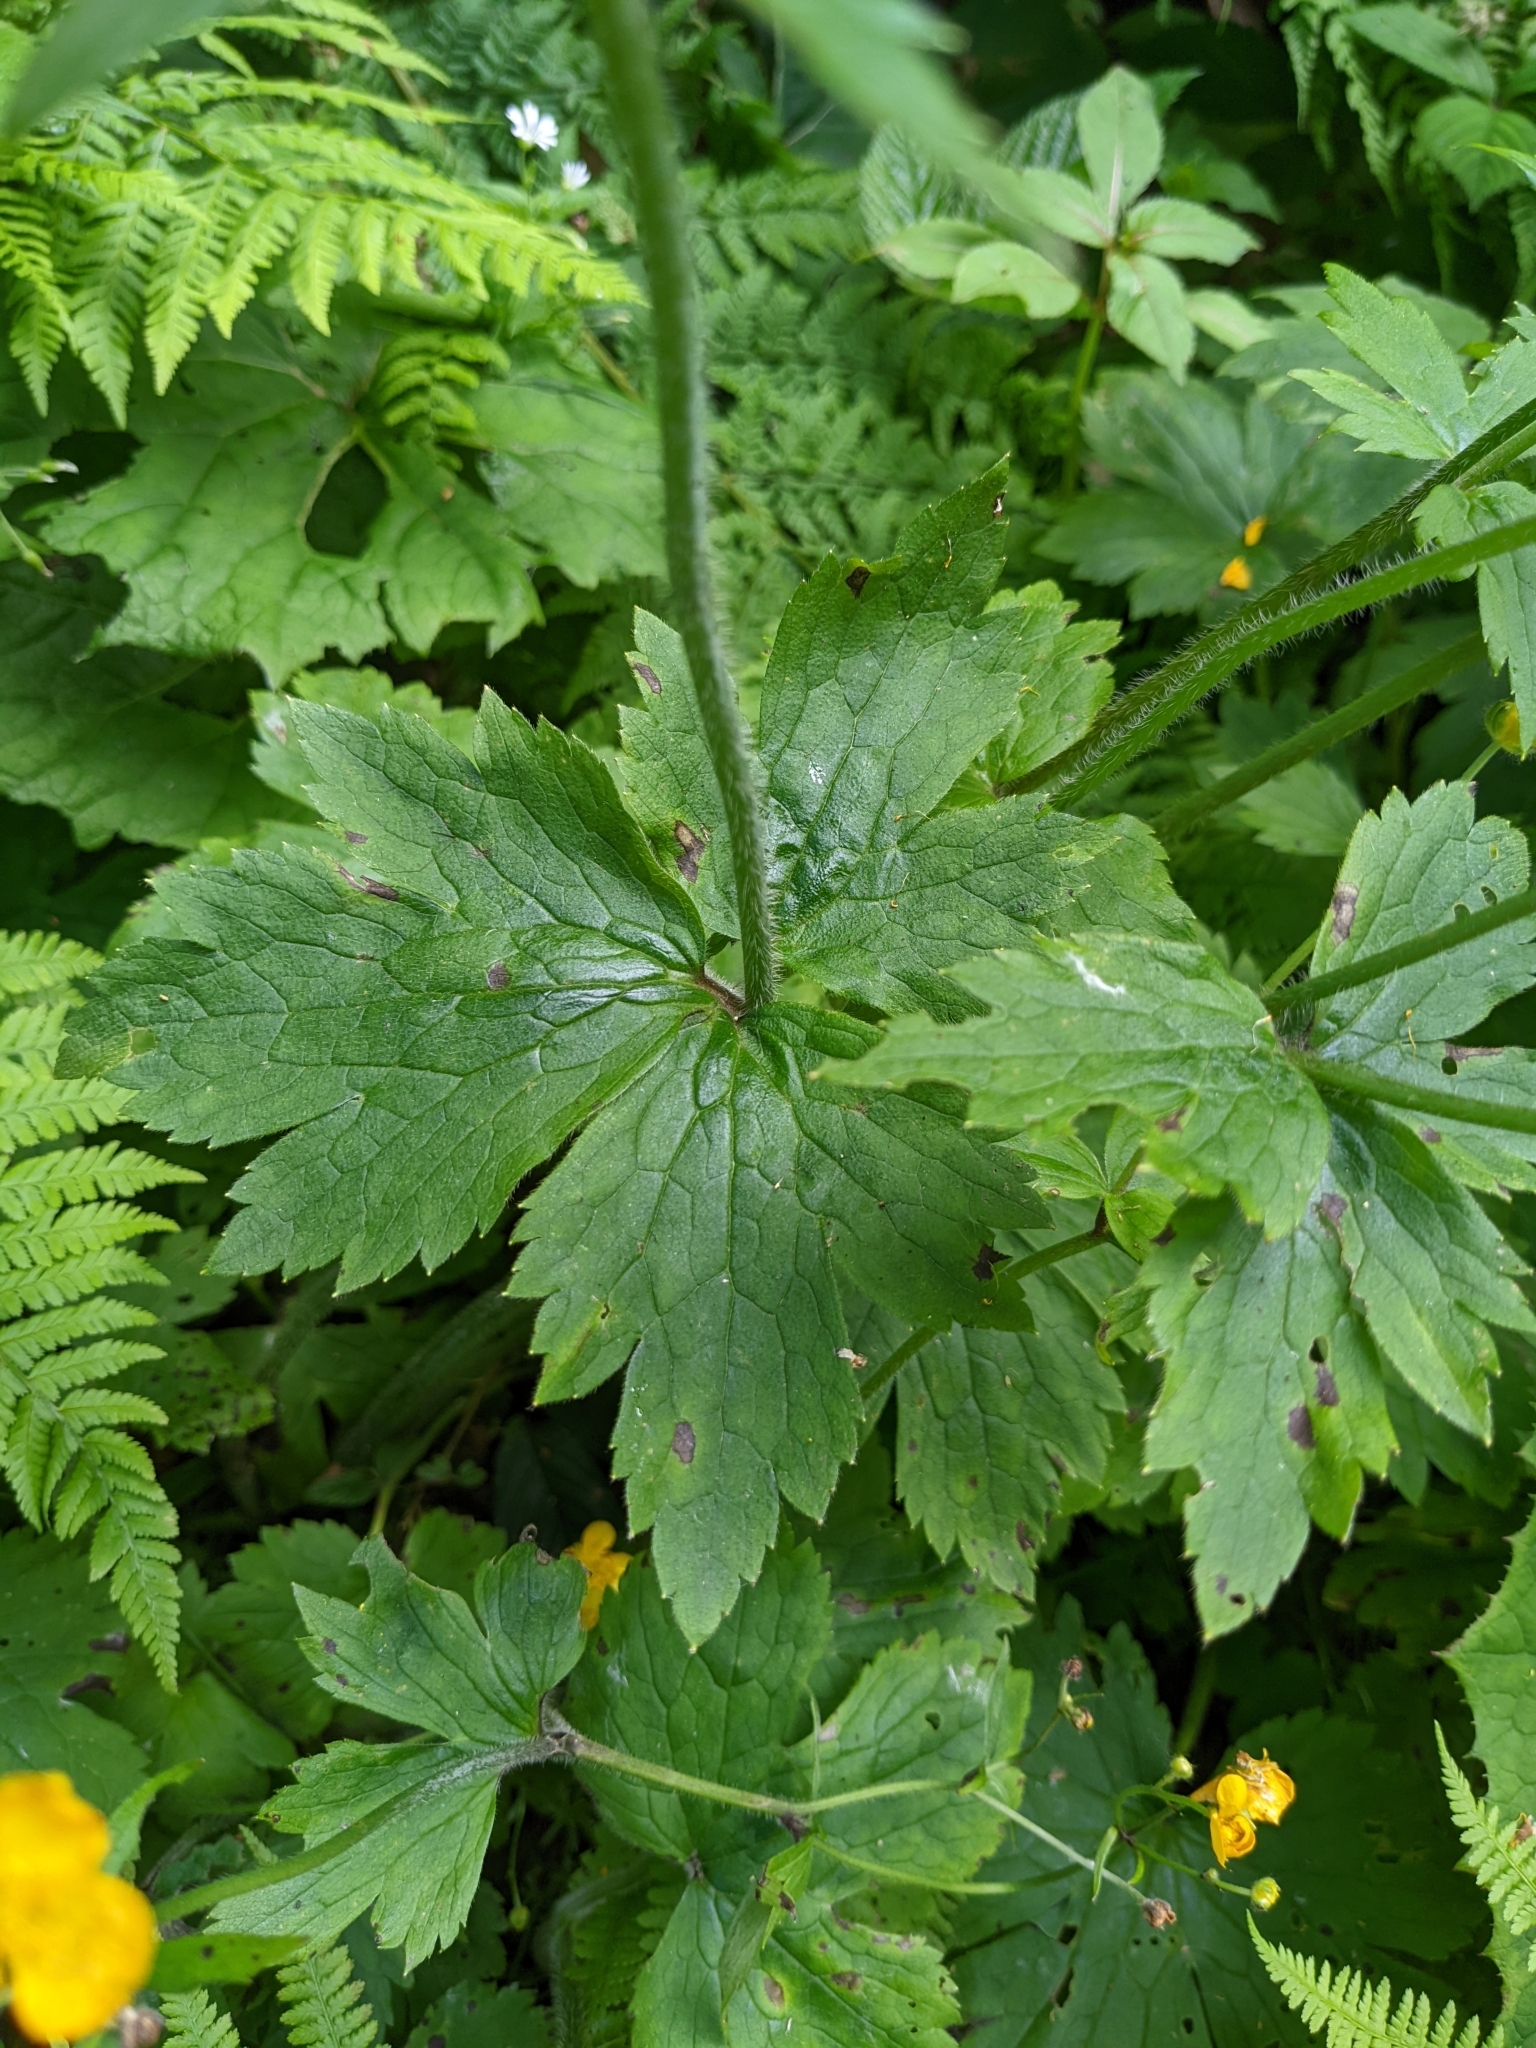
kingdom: Plantae
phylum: Tracheophyta
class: Magnoliopsida
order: Ranunculales
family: Ranunculaceae
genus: Ranunculus
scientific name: Ranunculus lanuginosus
